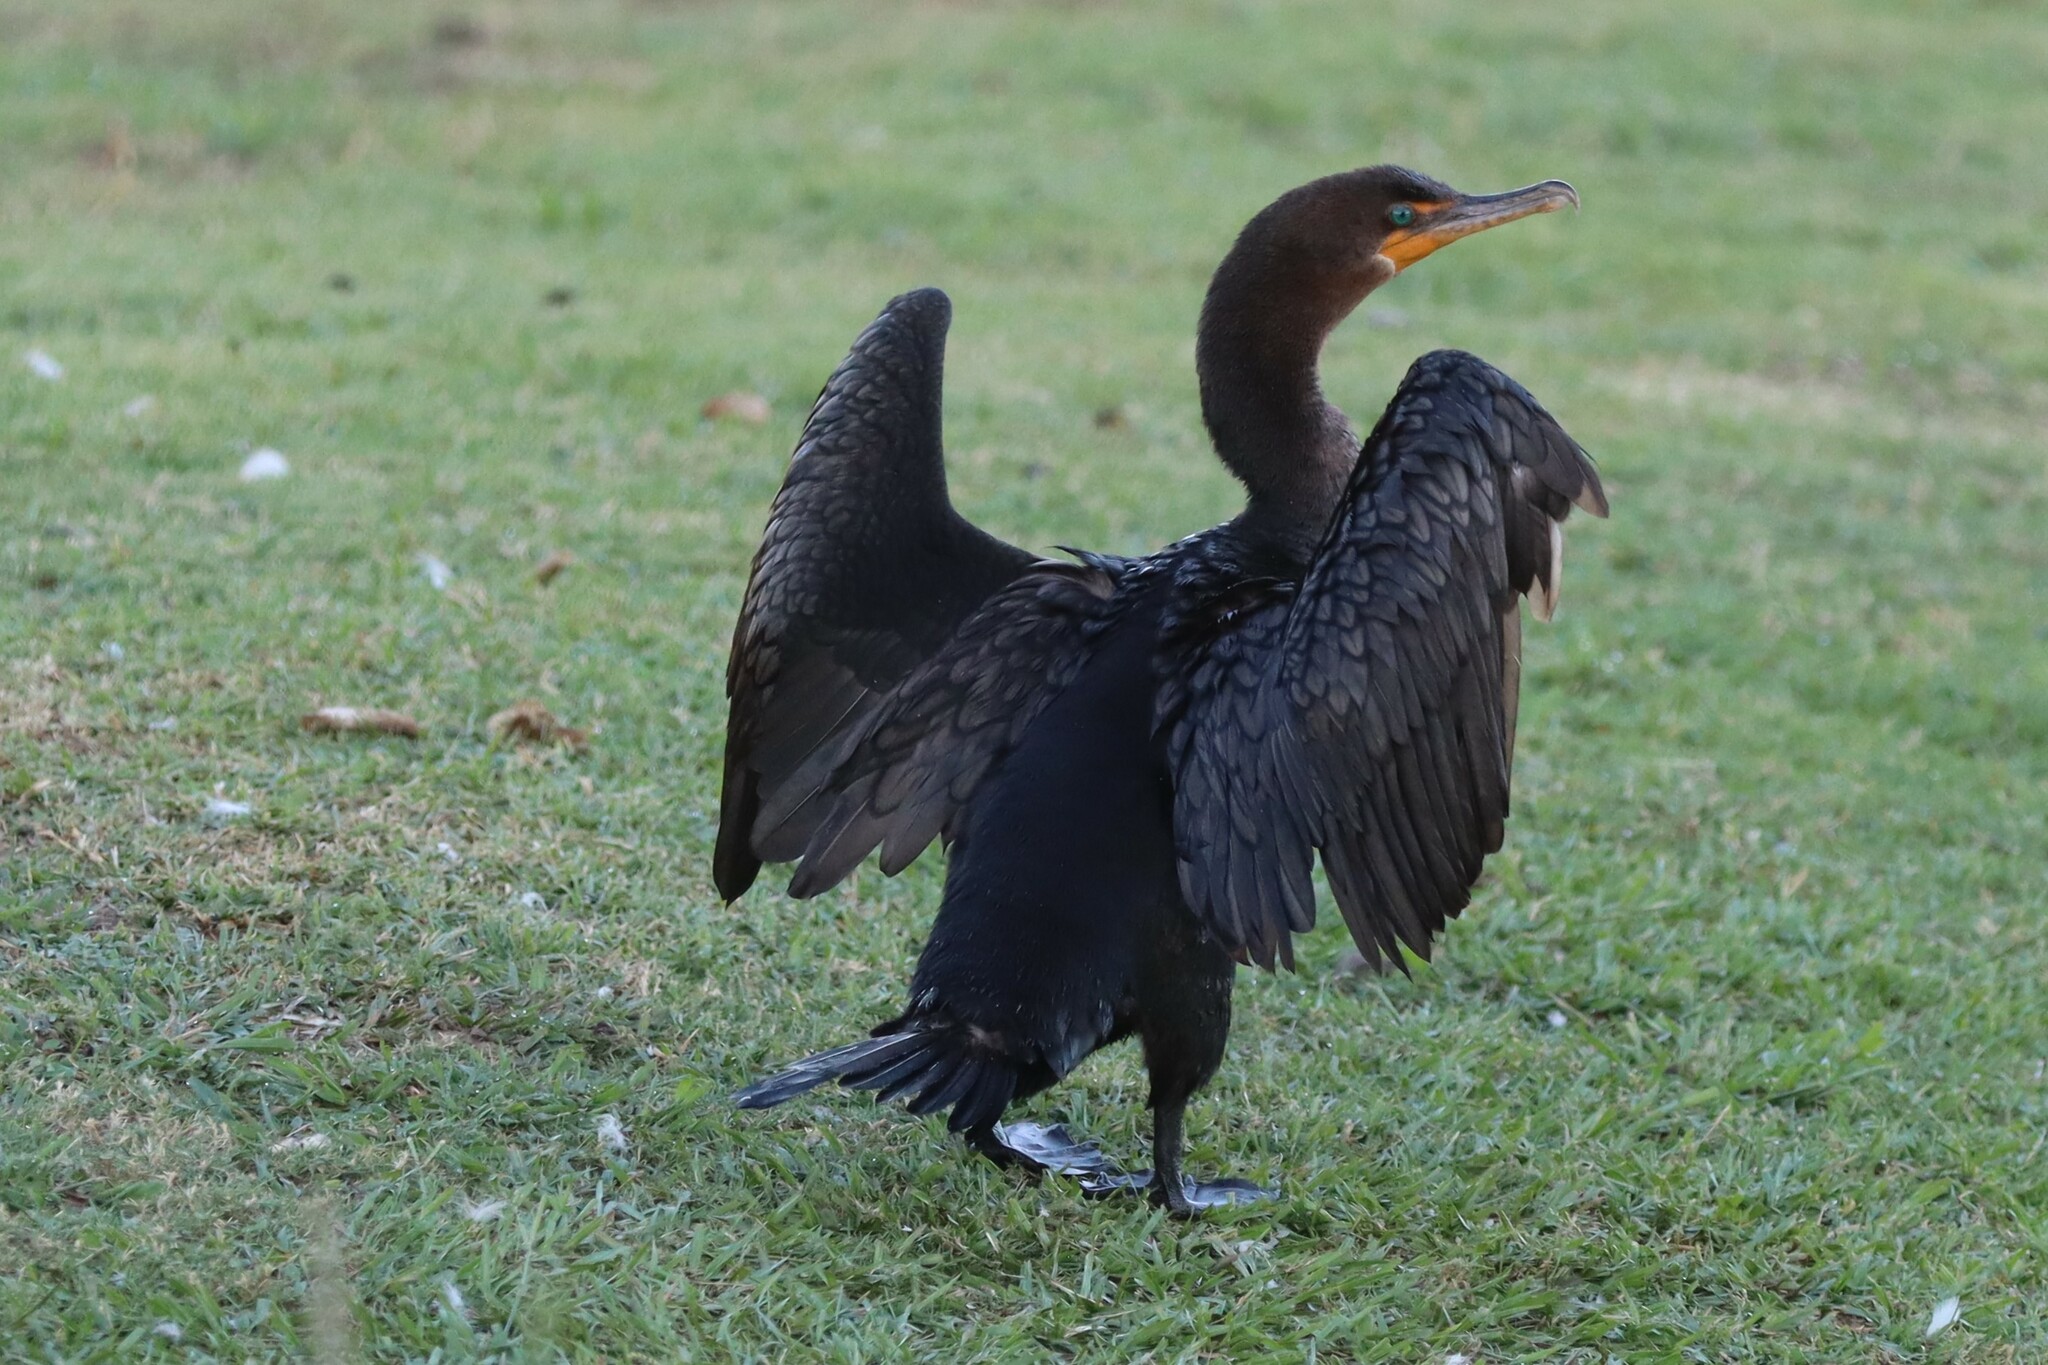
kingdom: Animalia
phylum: Chordata
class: Aves
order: Suliformes
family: Phalacrocoracidae
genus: Phalacrocorax
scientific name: Phalacrocorax auritus
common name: Double-crested cormorant
